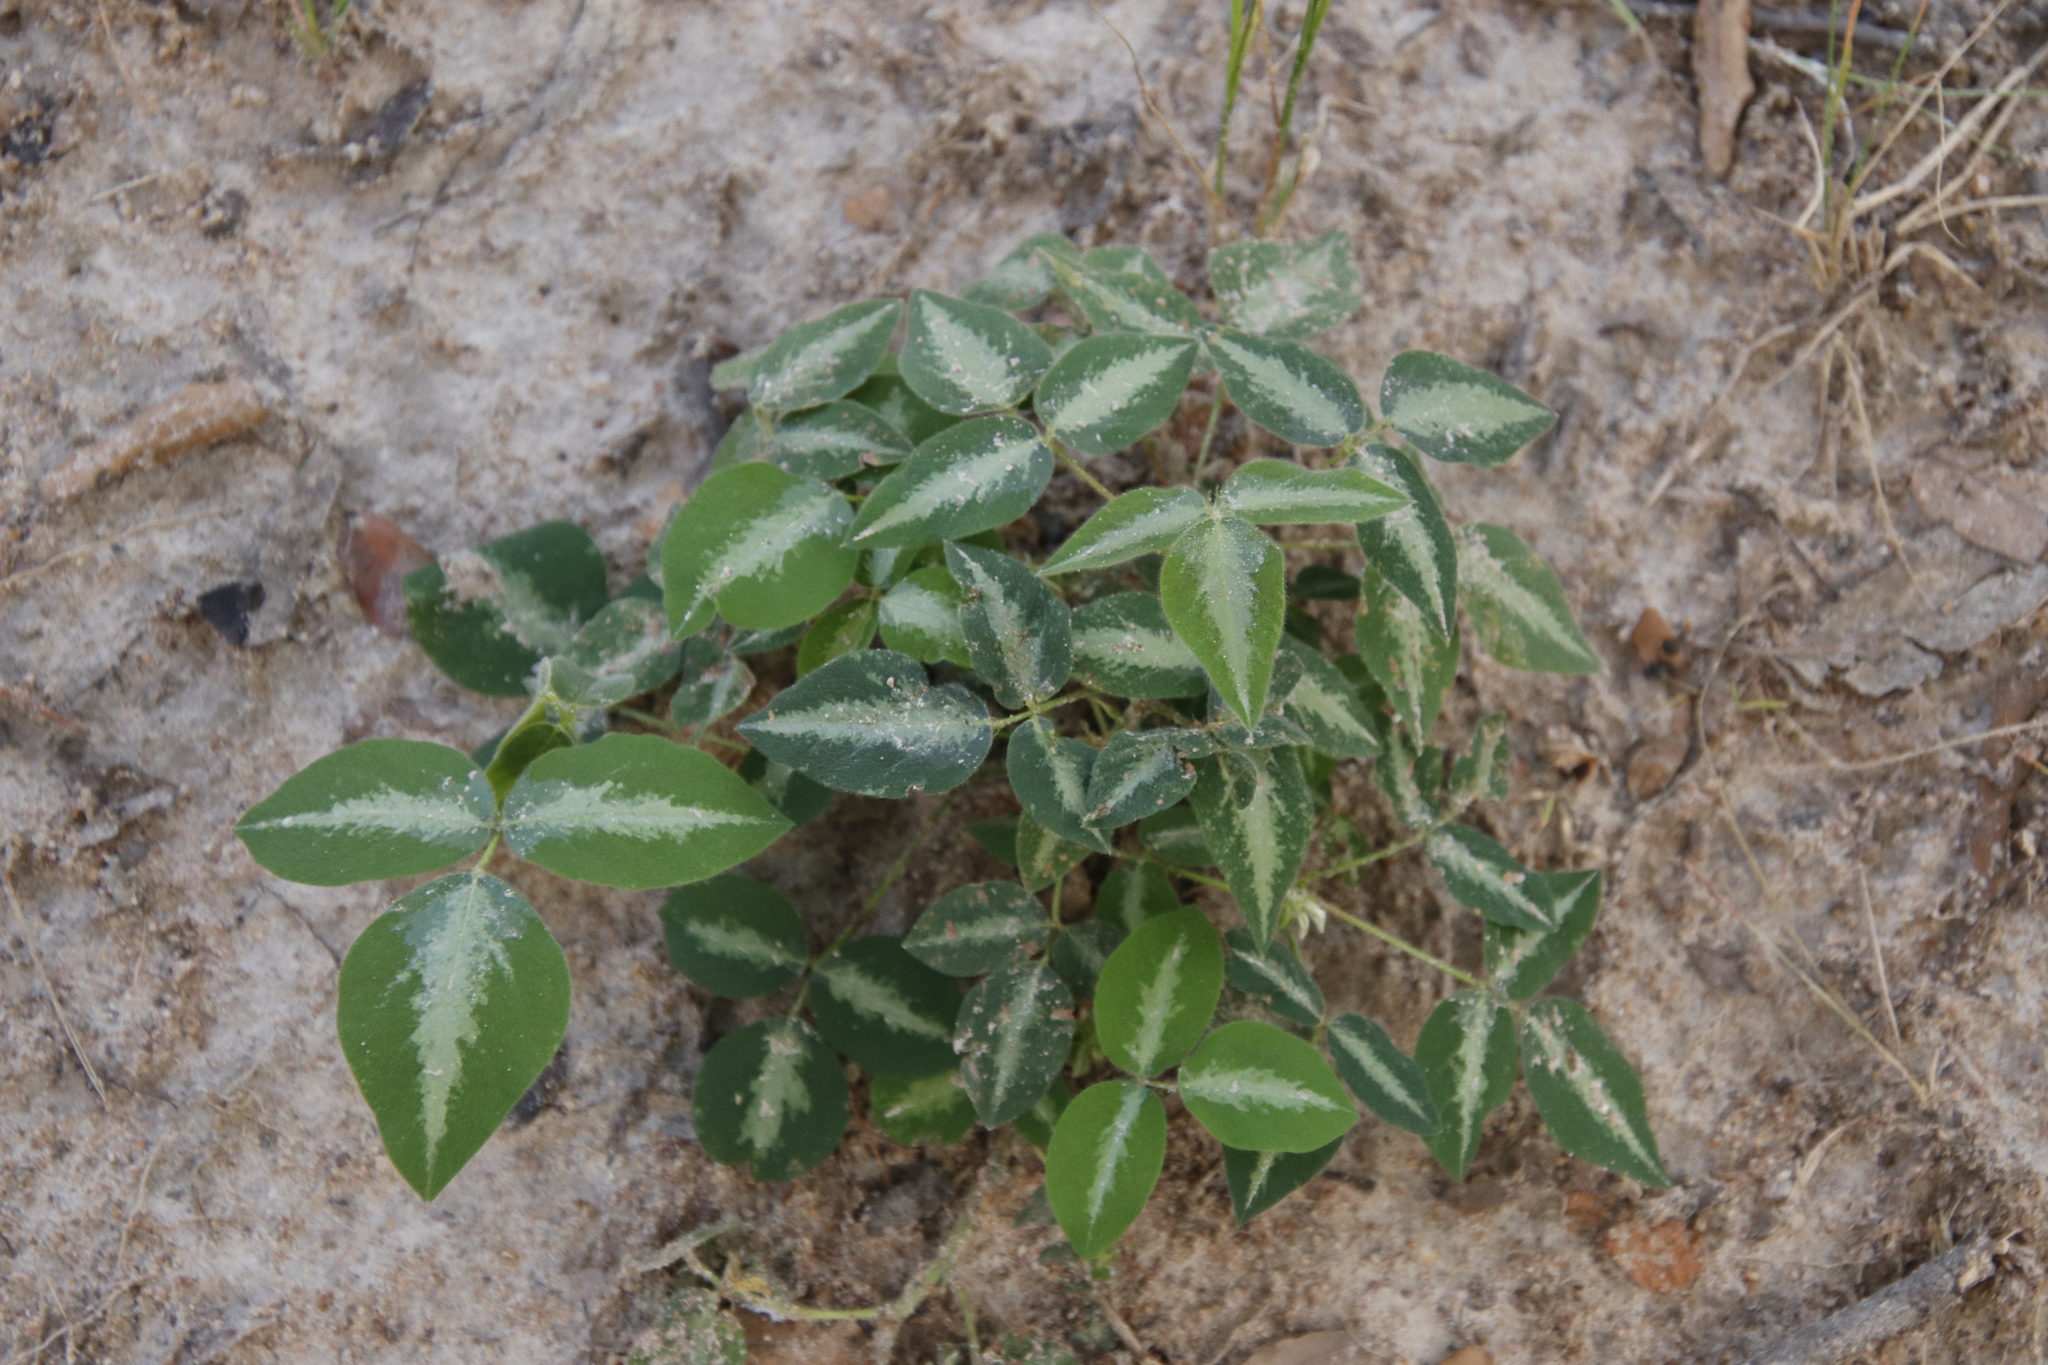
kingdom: Plantae
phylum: Tracheophyta
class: Magnoliopsida
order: Fabales
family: Fabaceae
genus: Desmodium
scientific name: Desmodium uncinatum
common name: Silverleaf desmodium
